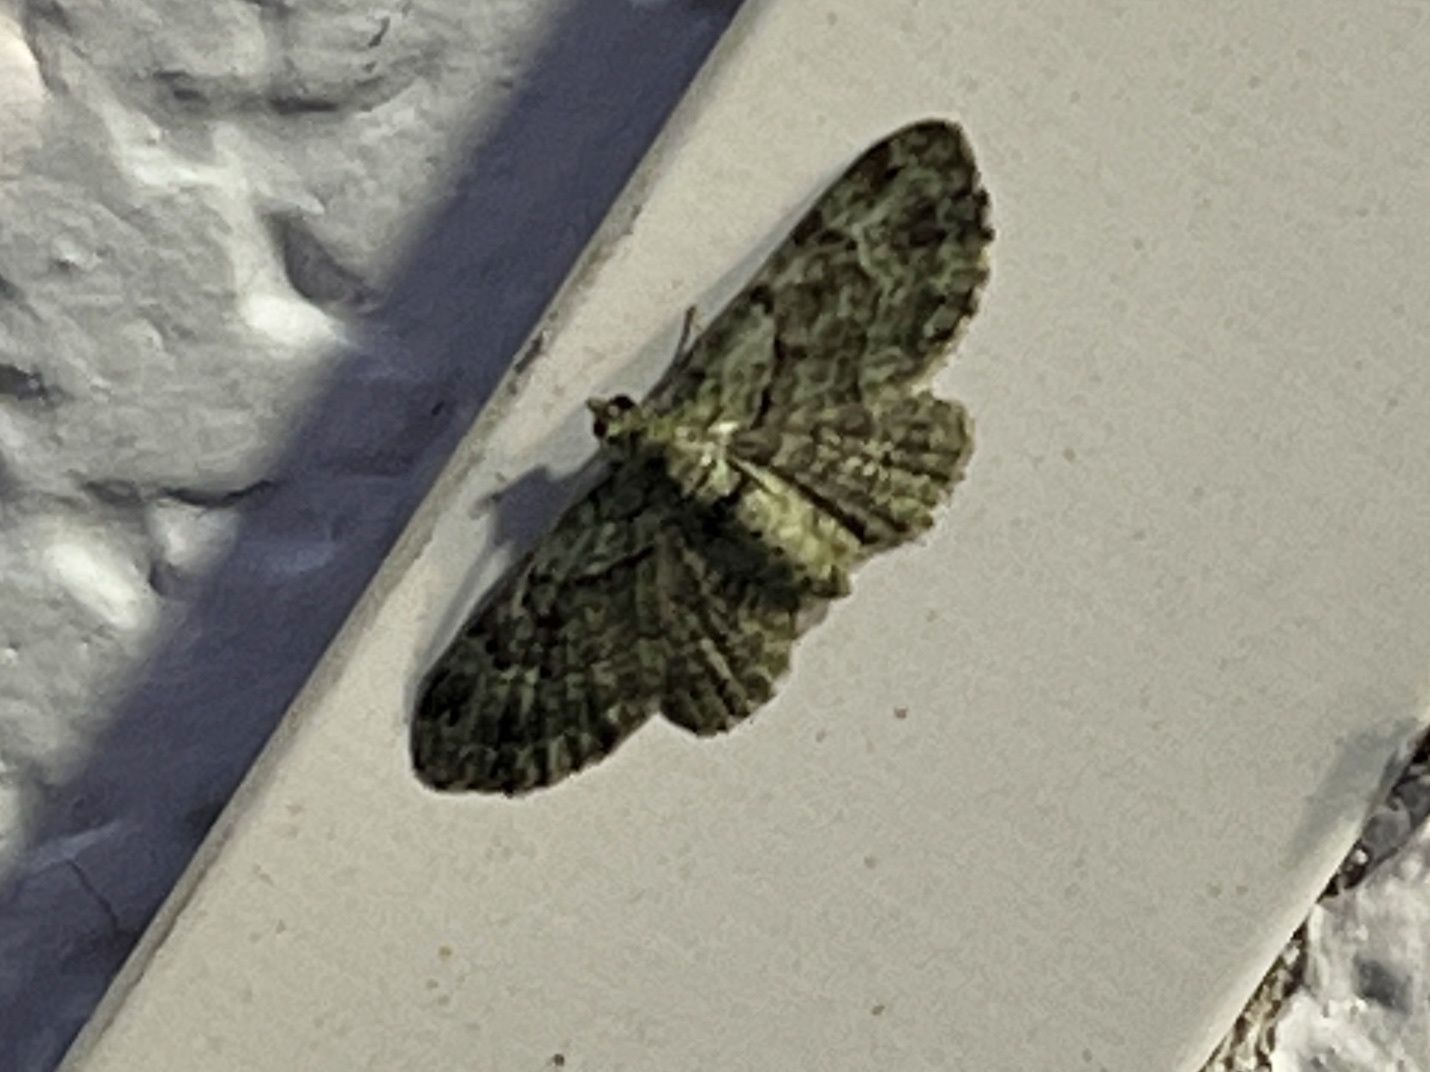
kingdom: Animalia
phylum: Arthropoda
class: Insecta
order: Lepidoptera
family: Geometridae
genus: Pasiphila
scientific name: Pasiphila rectangulata
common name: Green pug
